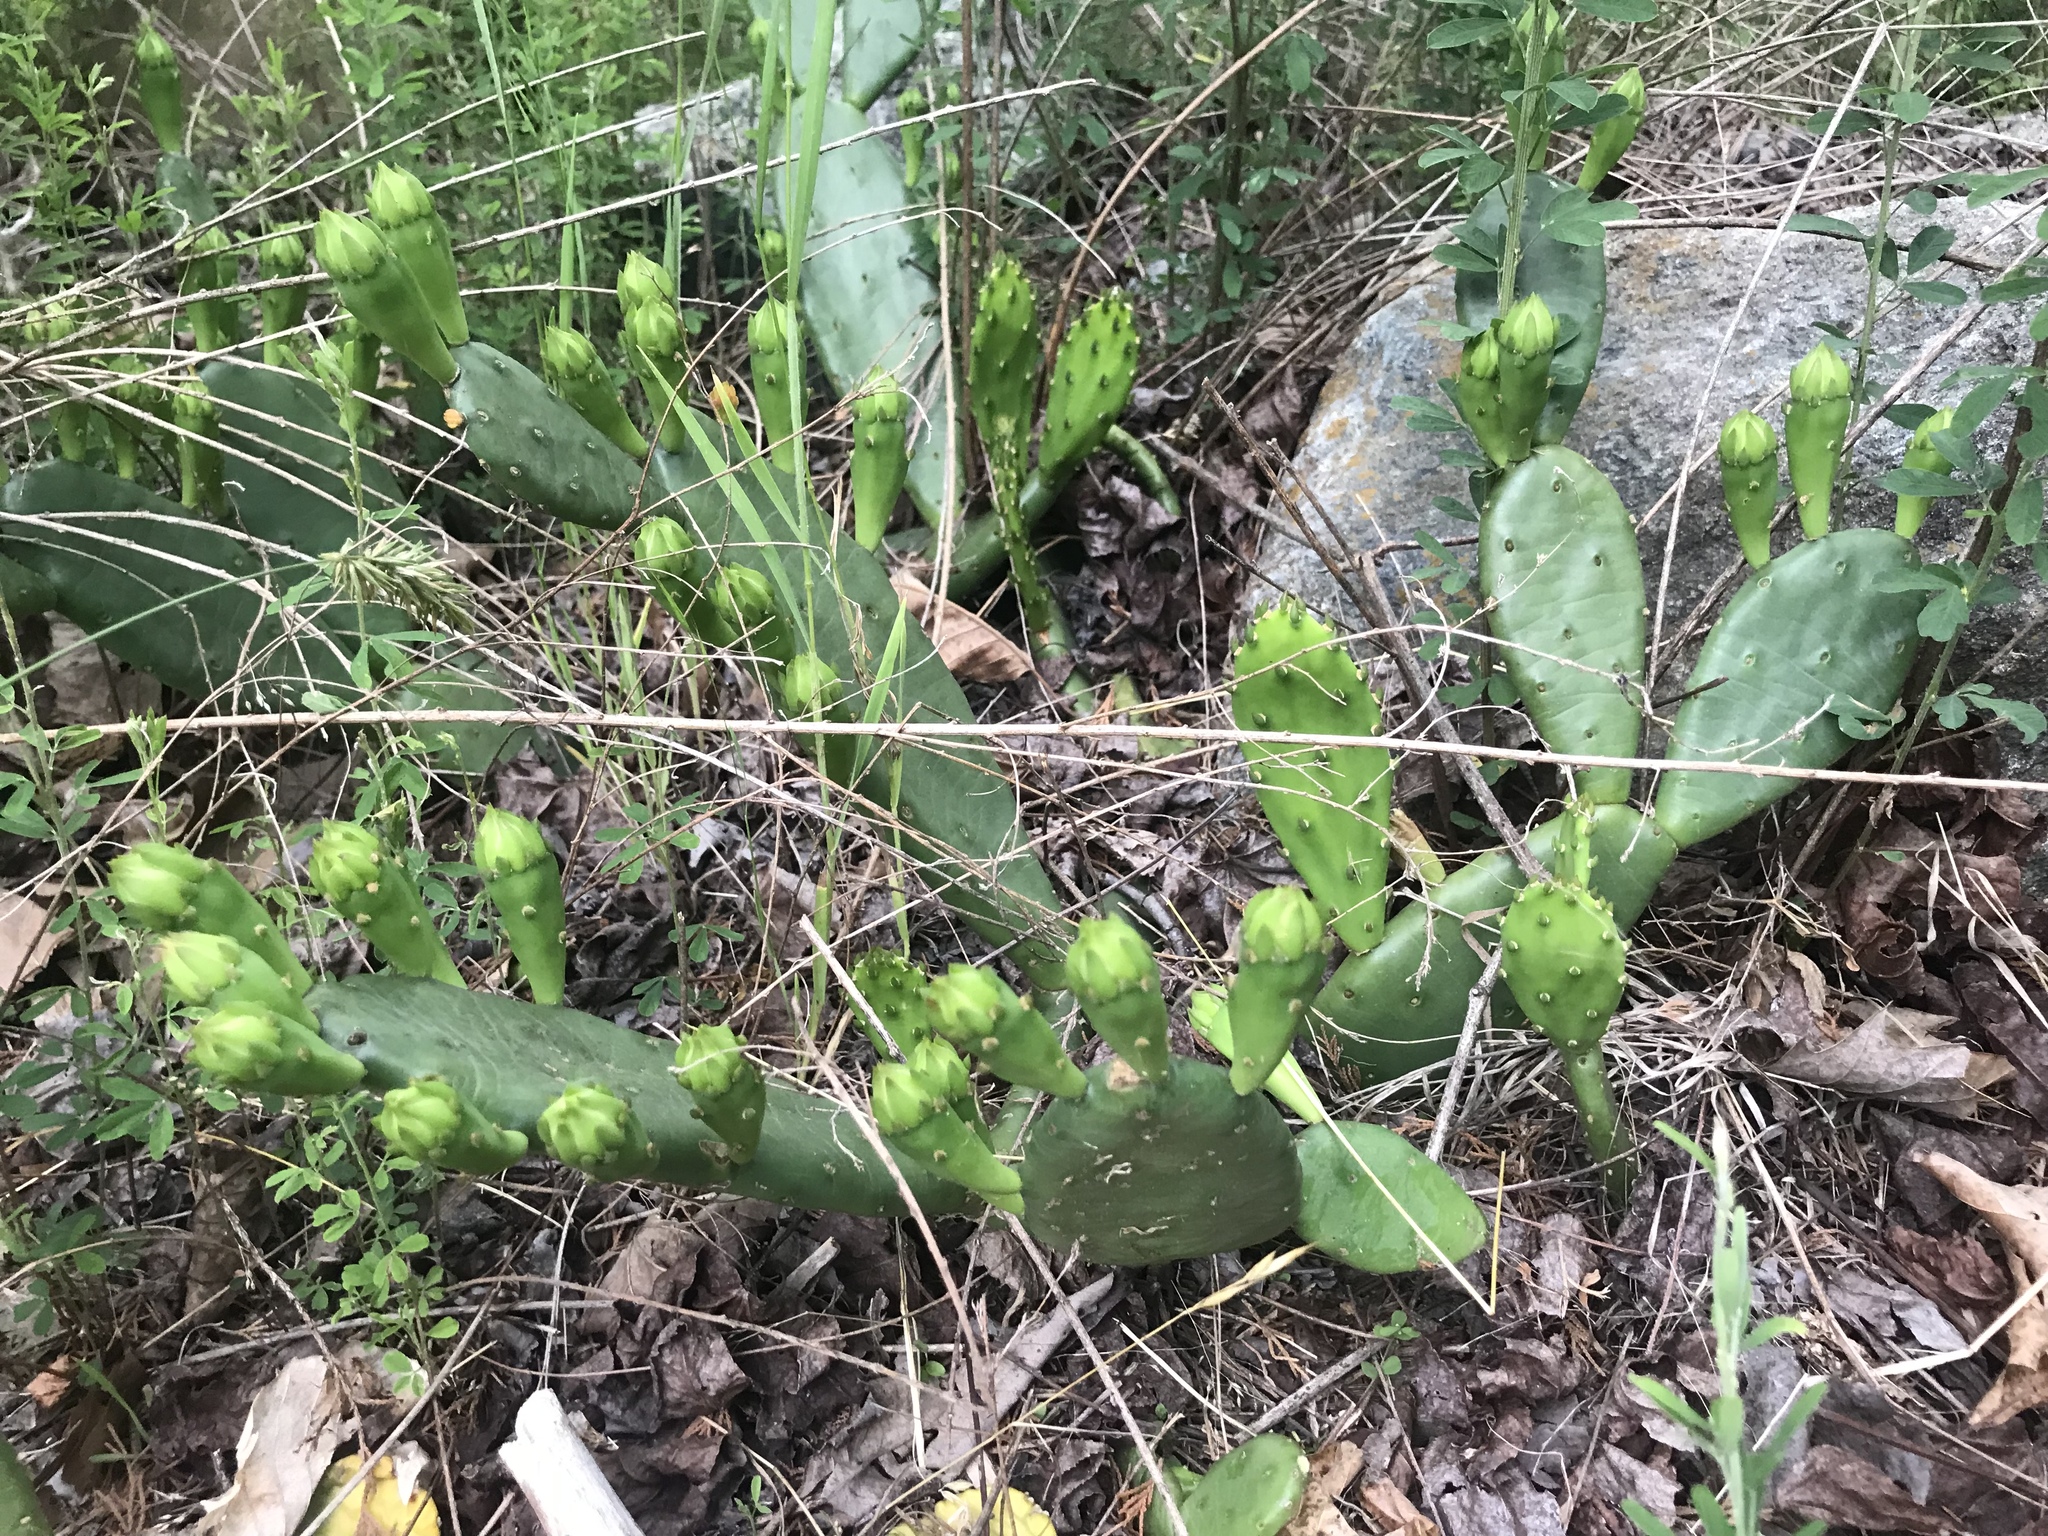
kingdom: Plantae
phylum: Tracheophyta
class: Magnoliopsida
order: Caryophyllales
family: Cactaceae
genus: Opuntia
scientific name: Opuntia humifusa
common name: Eastern prickly-pear
